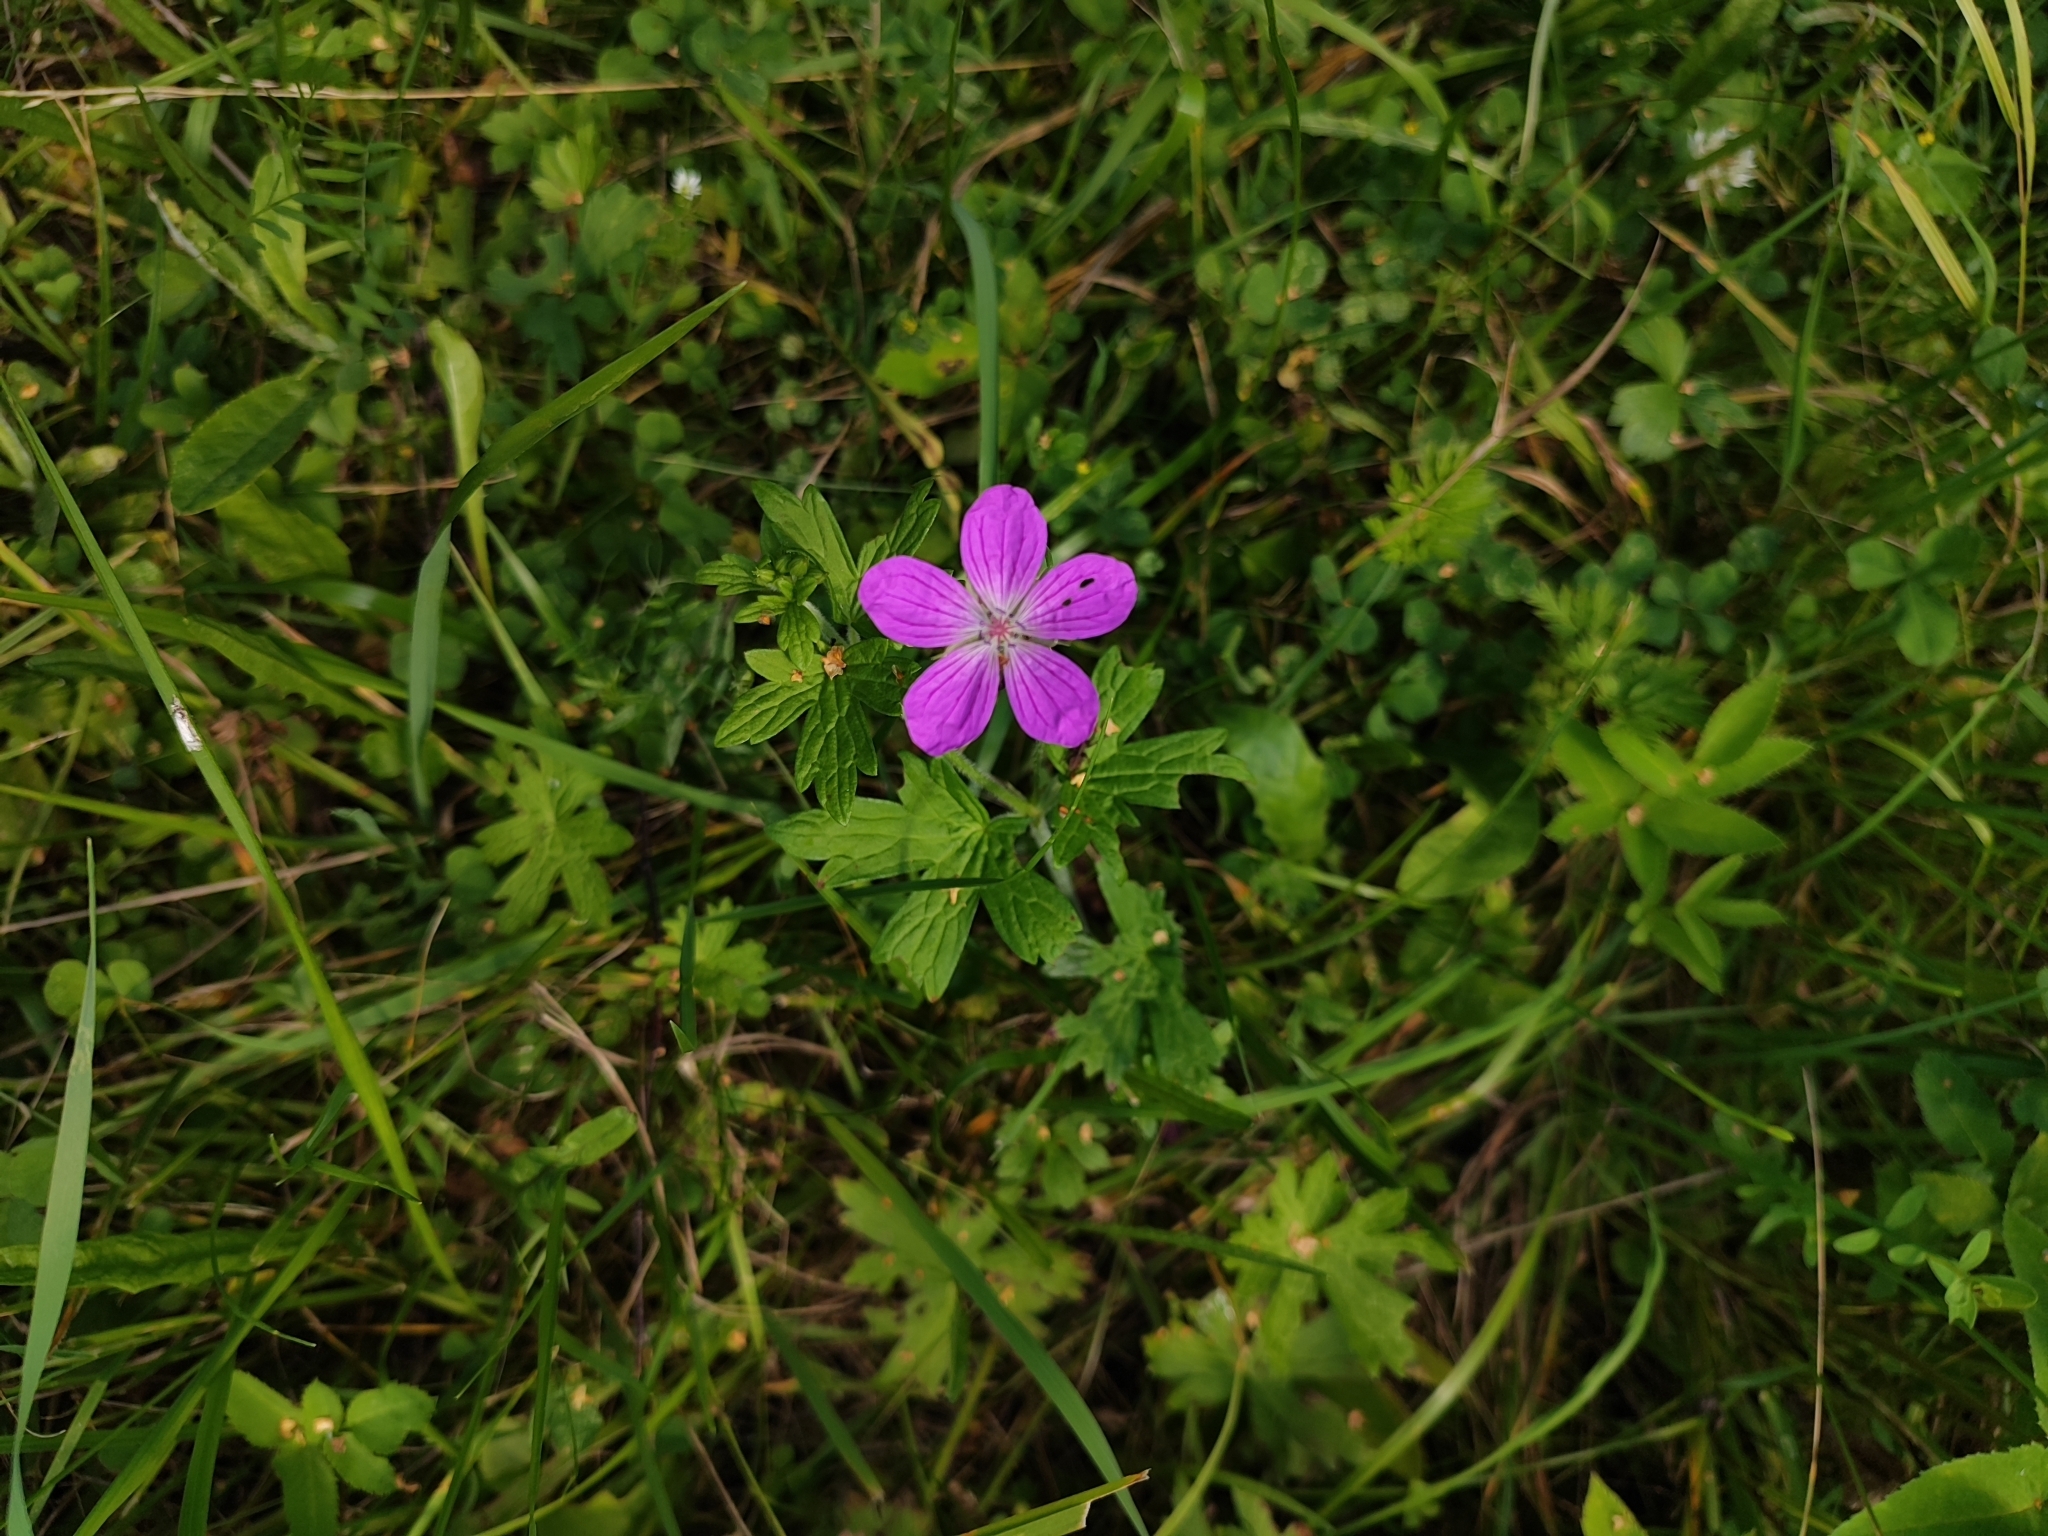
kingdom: Plantae
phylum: Tracheophyta
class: Magnoliopsida
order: Geraniales
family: Geraniaceae
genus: Geranium
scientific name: Geranium palustre
